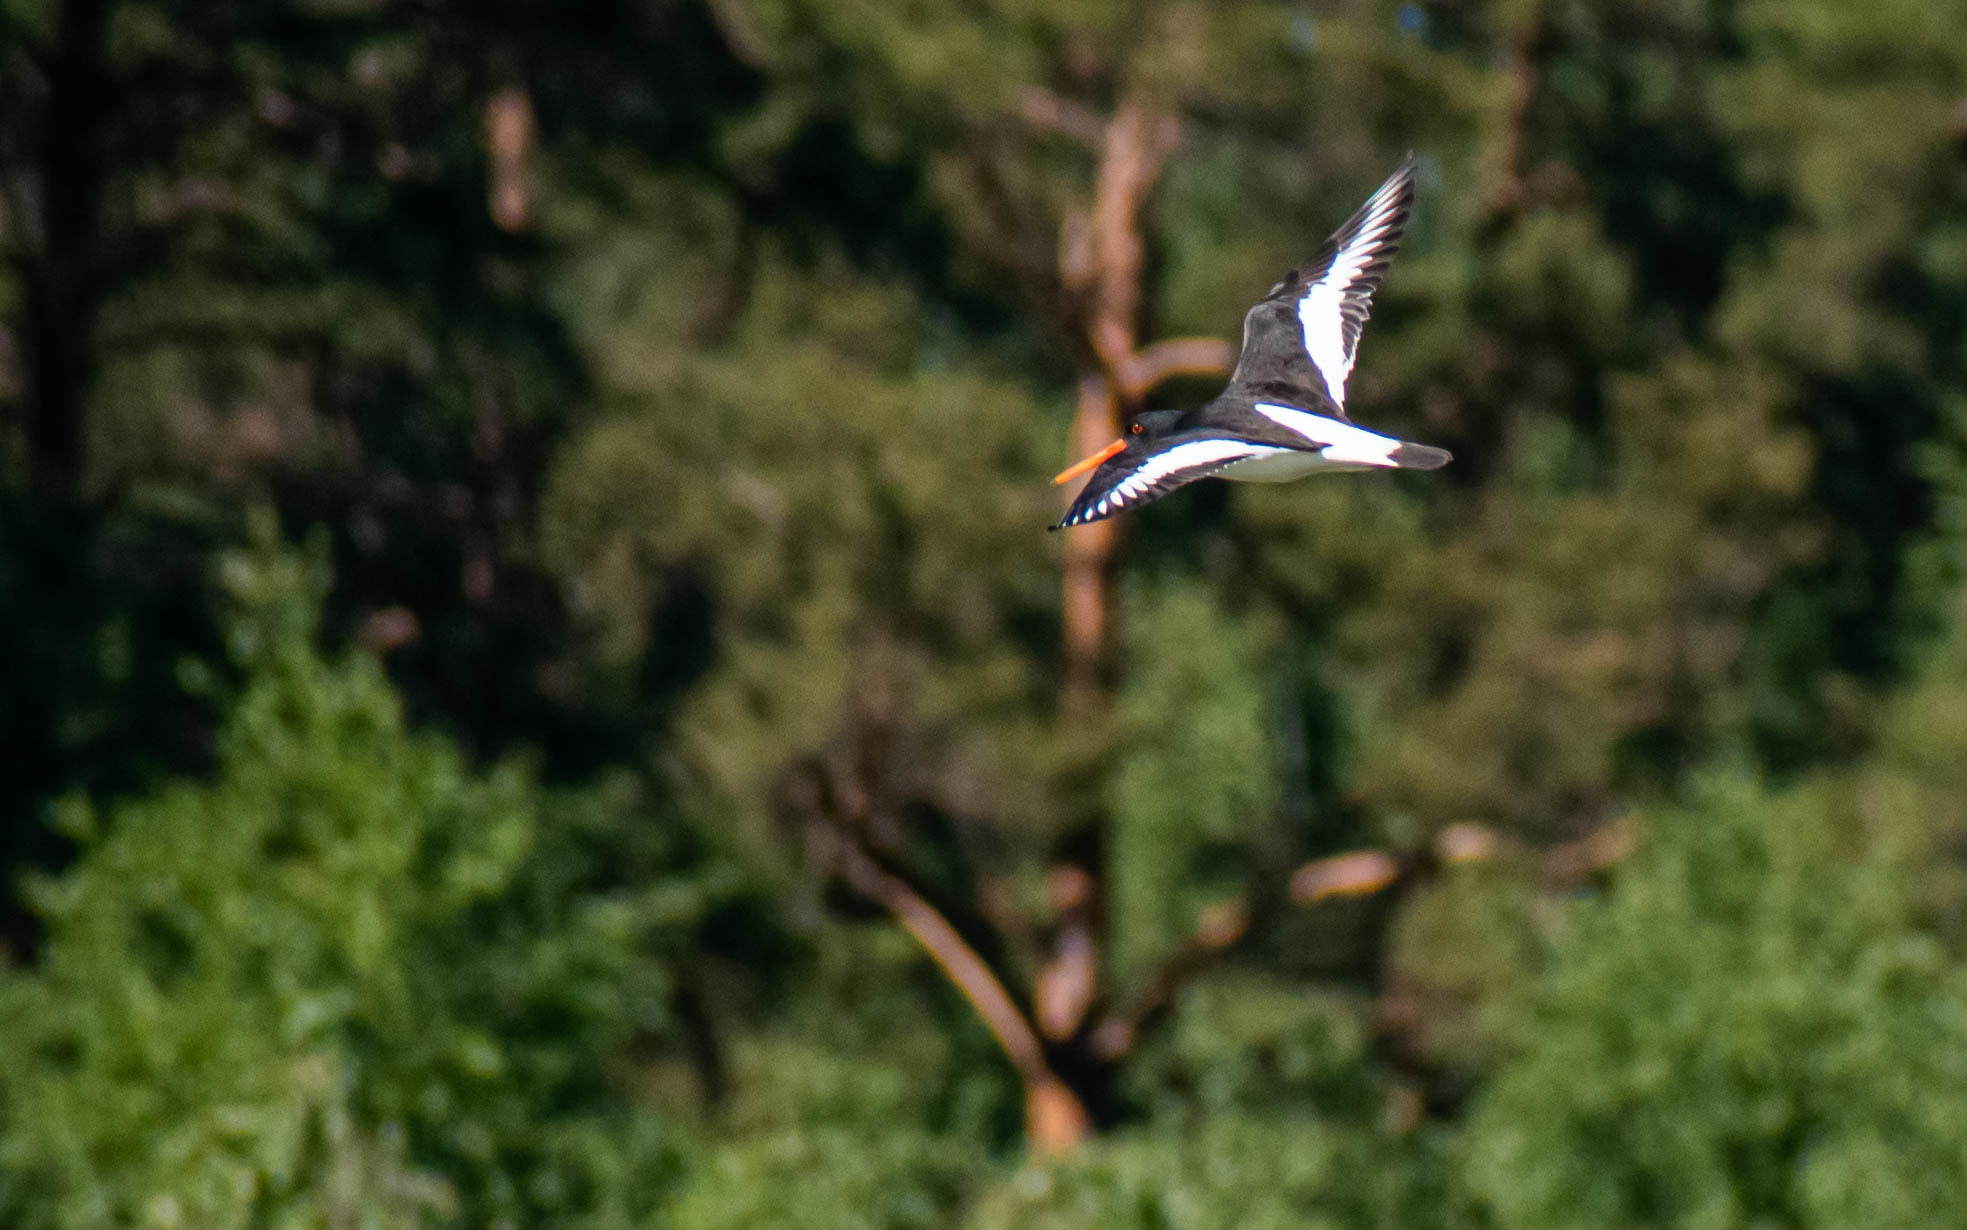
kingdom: Animalia
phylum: Chordata
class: Aves
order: Charadriiformes
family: Haematopodidae
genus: Haematopus
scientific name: Haematopus ostralegus
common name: Eurasian oystercatcher
